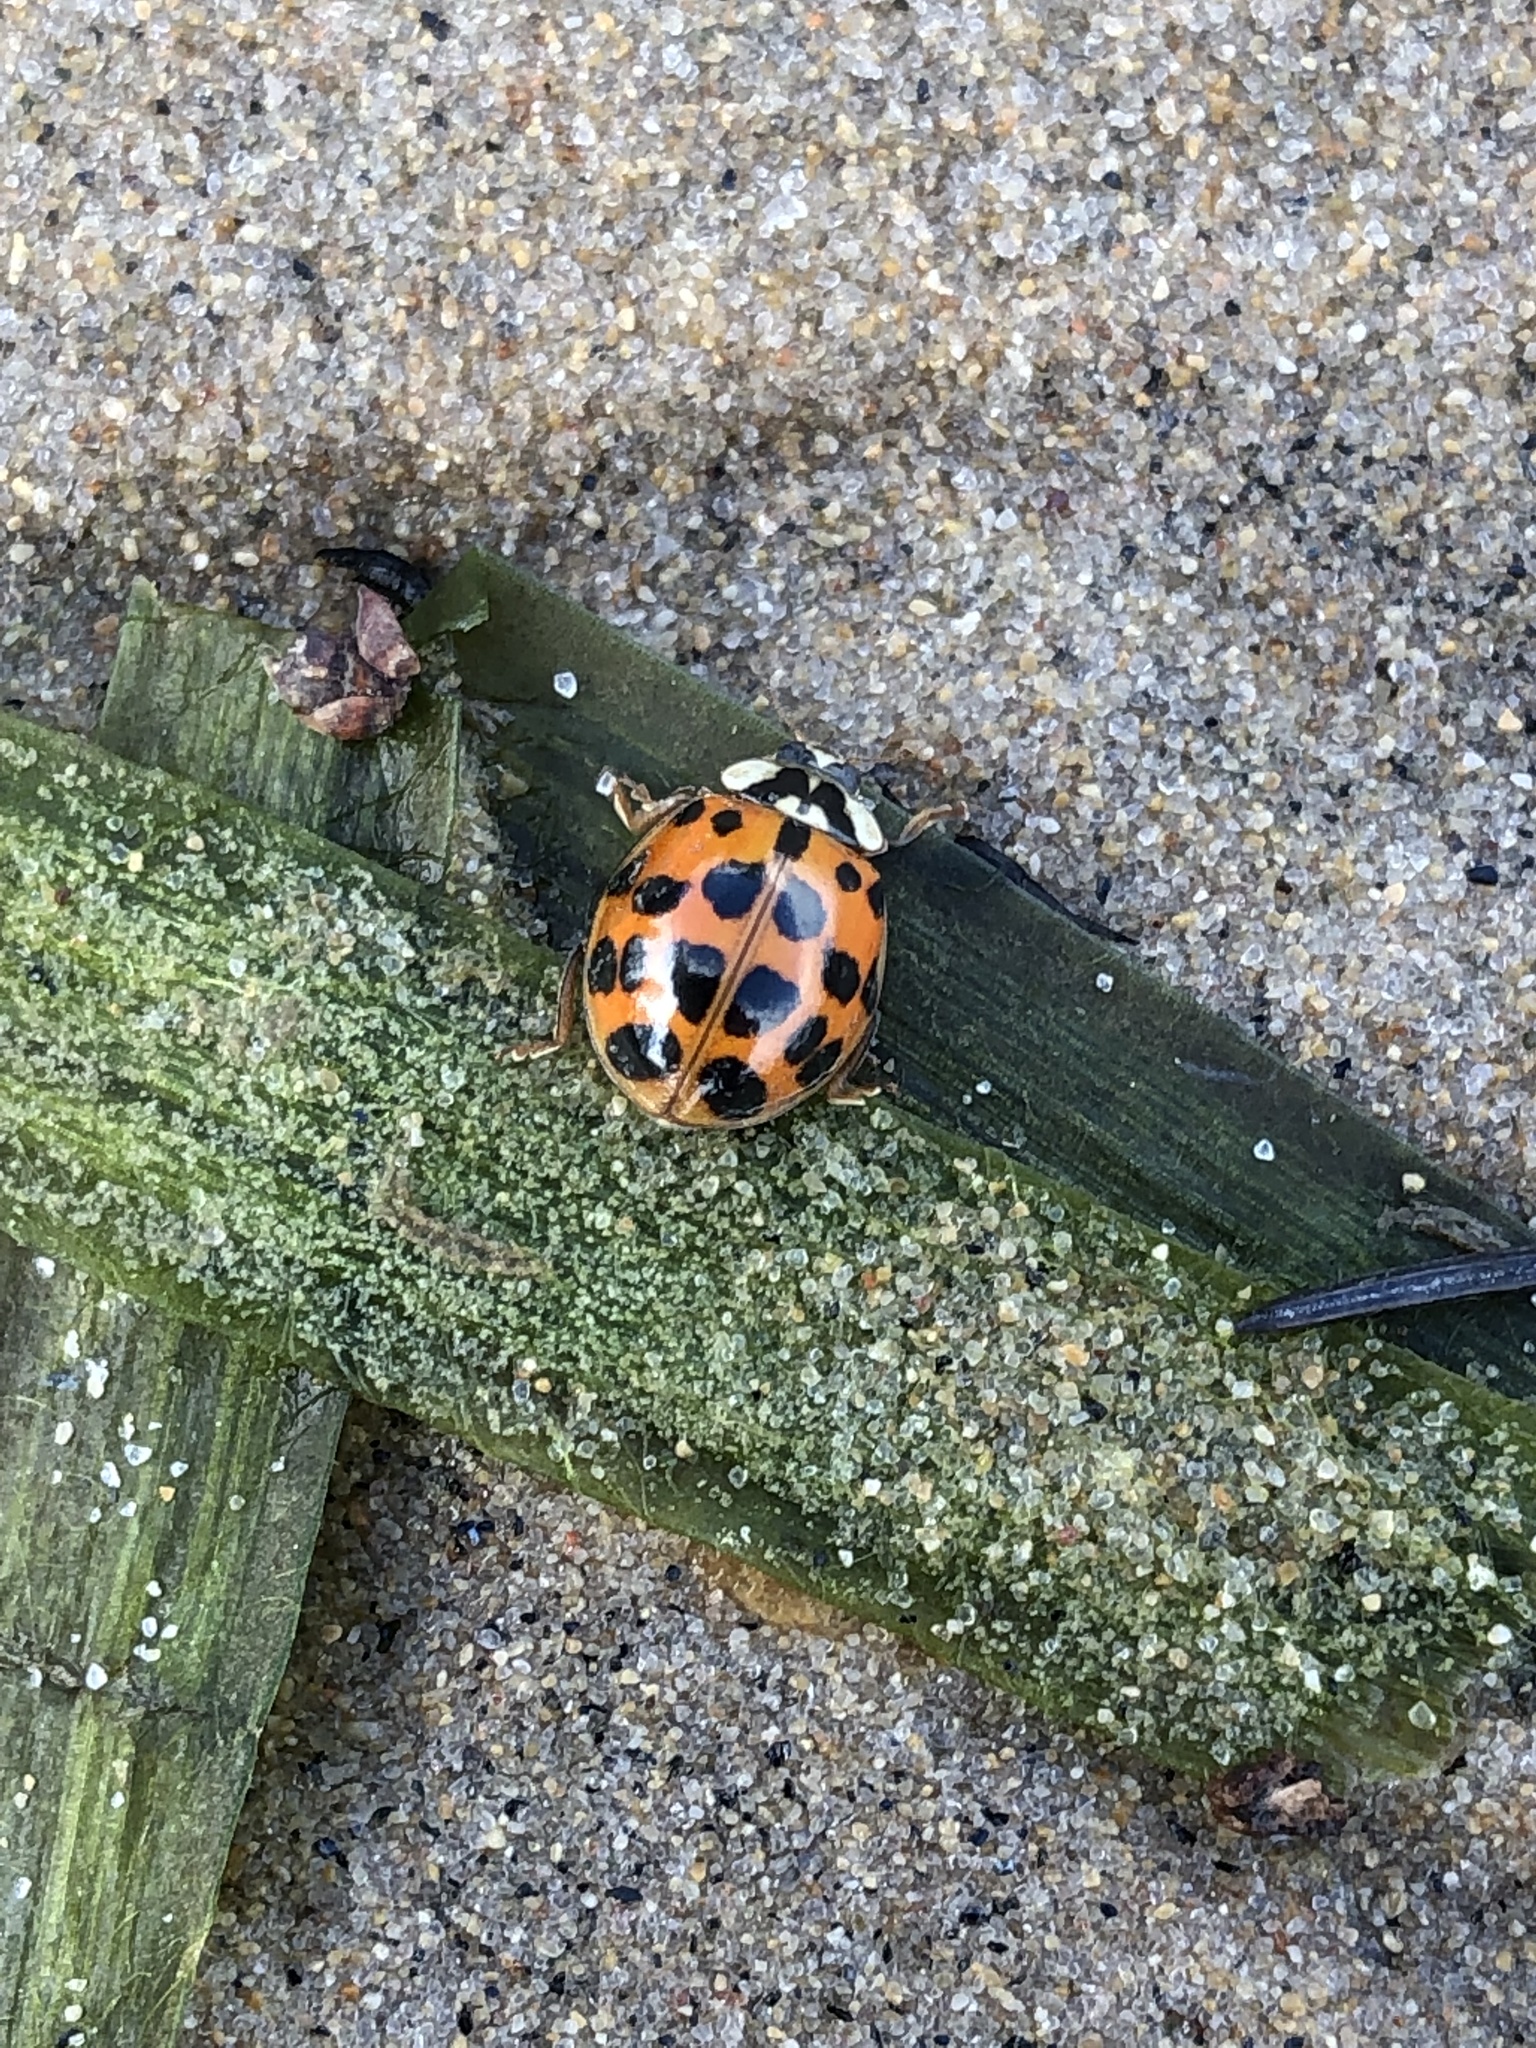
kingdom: Animalia
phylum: Arthropoda
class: Insecta
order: Coleoptera
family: Coccinellidae
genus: Harmonia
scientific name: Harmonia axyridis
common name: Harlequin ladybird
